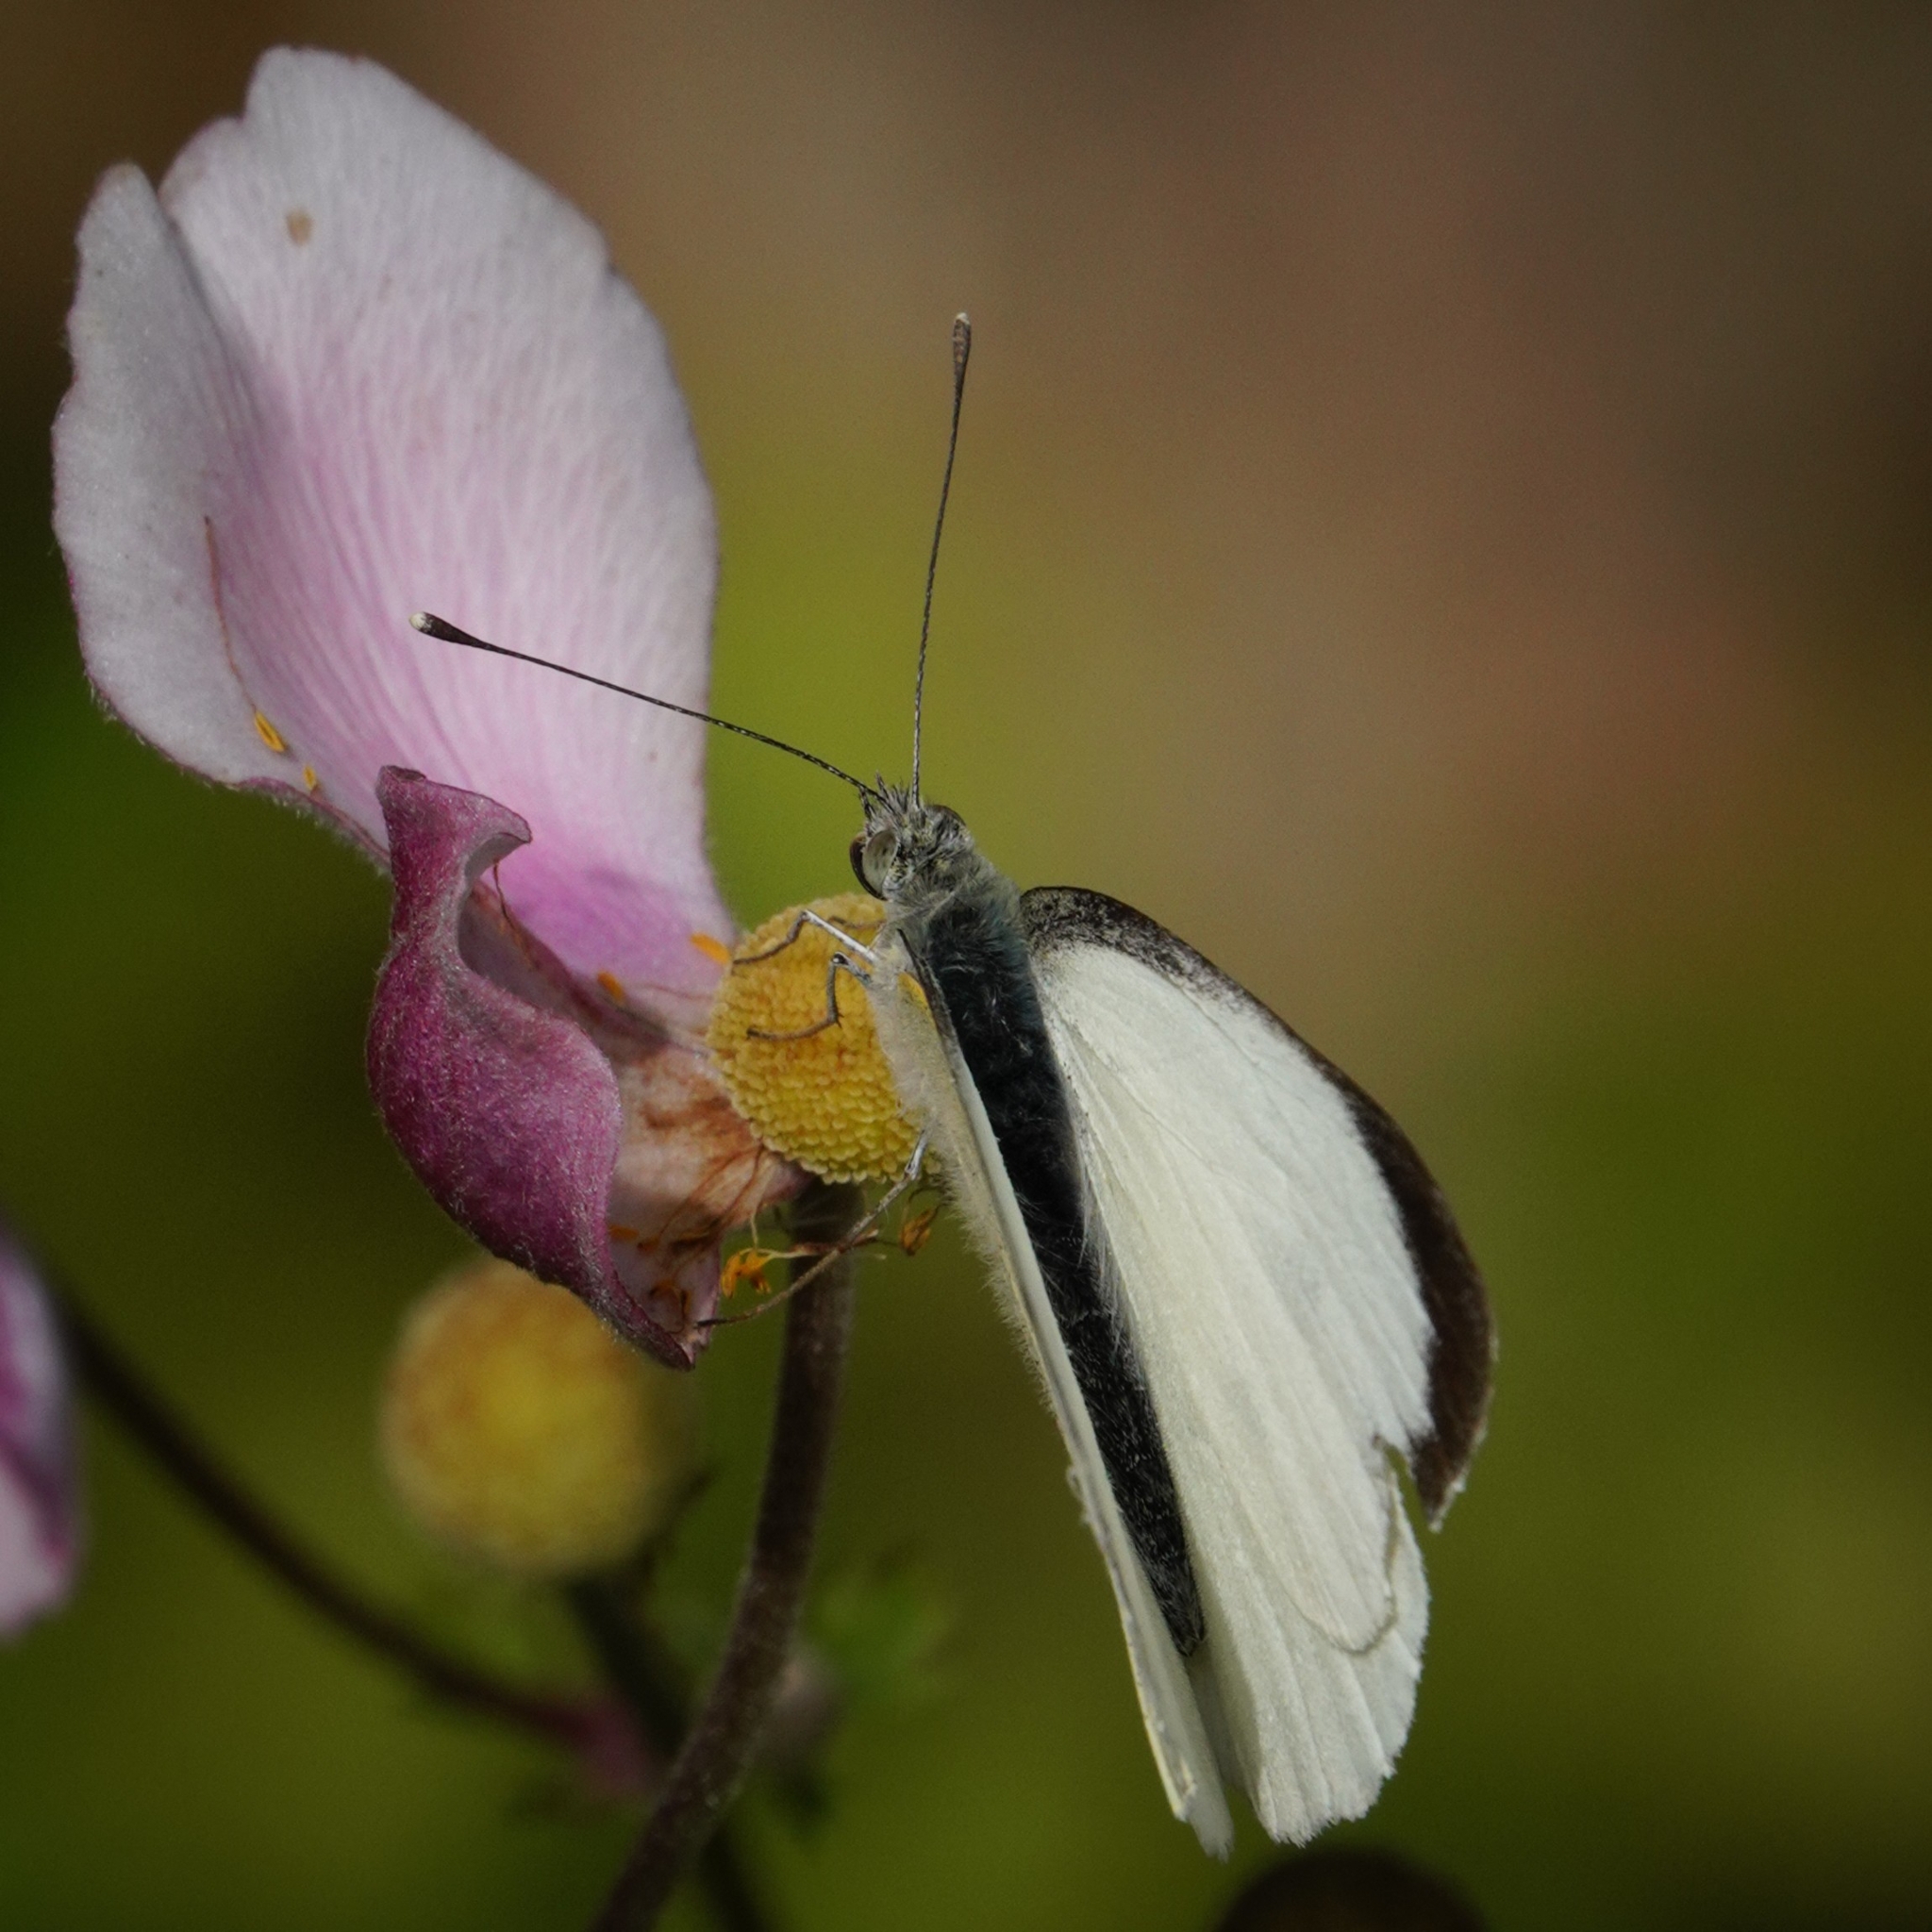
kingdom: Animalia
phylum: Arthropoda
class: Insecta
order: Lepidoptera
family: Pieridae
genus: Pieris
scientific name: Pieris brassicae
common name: Large white
